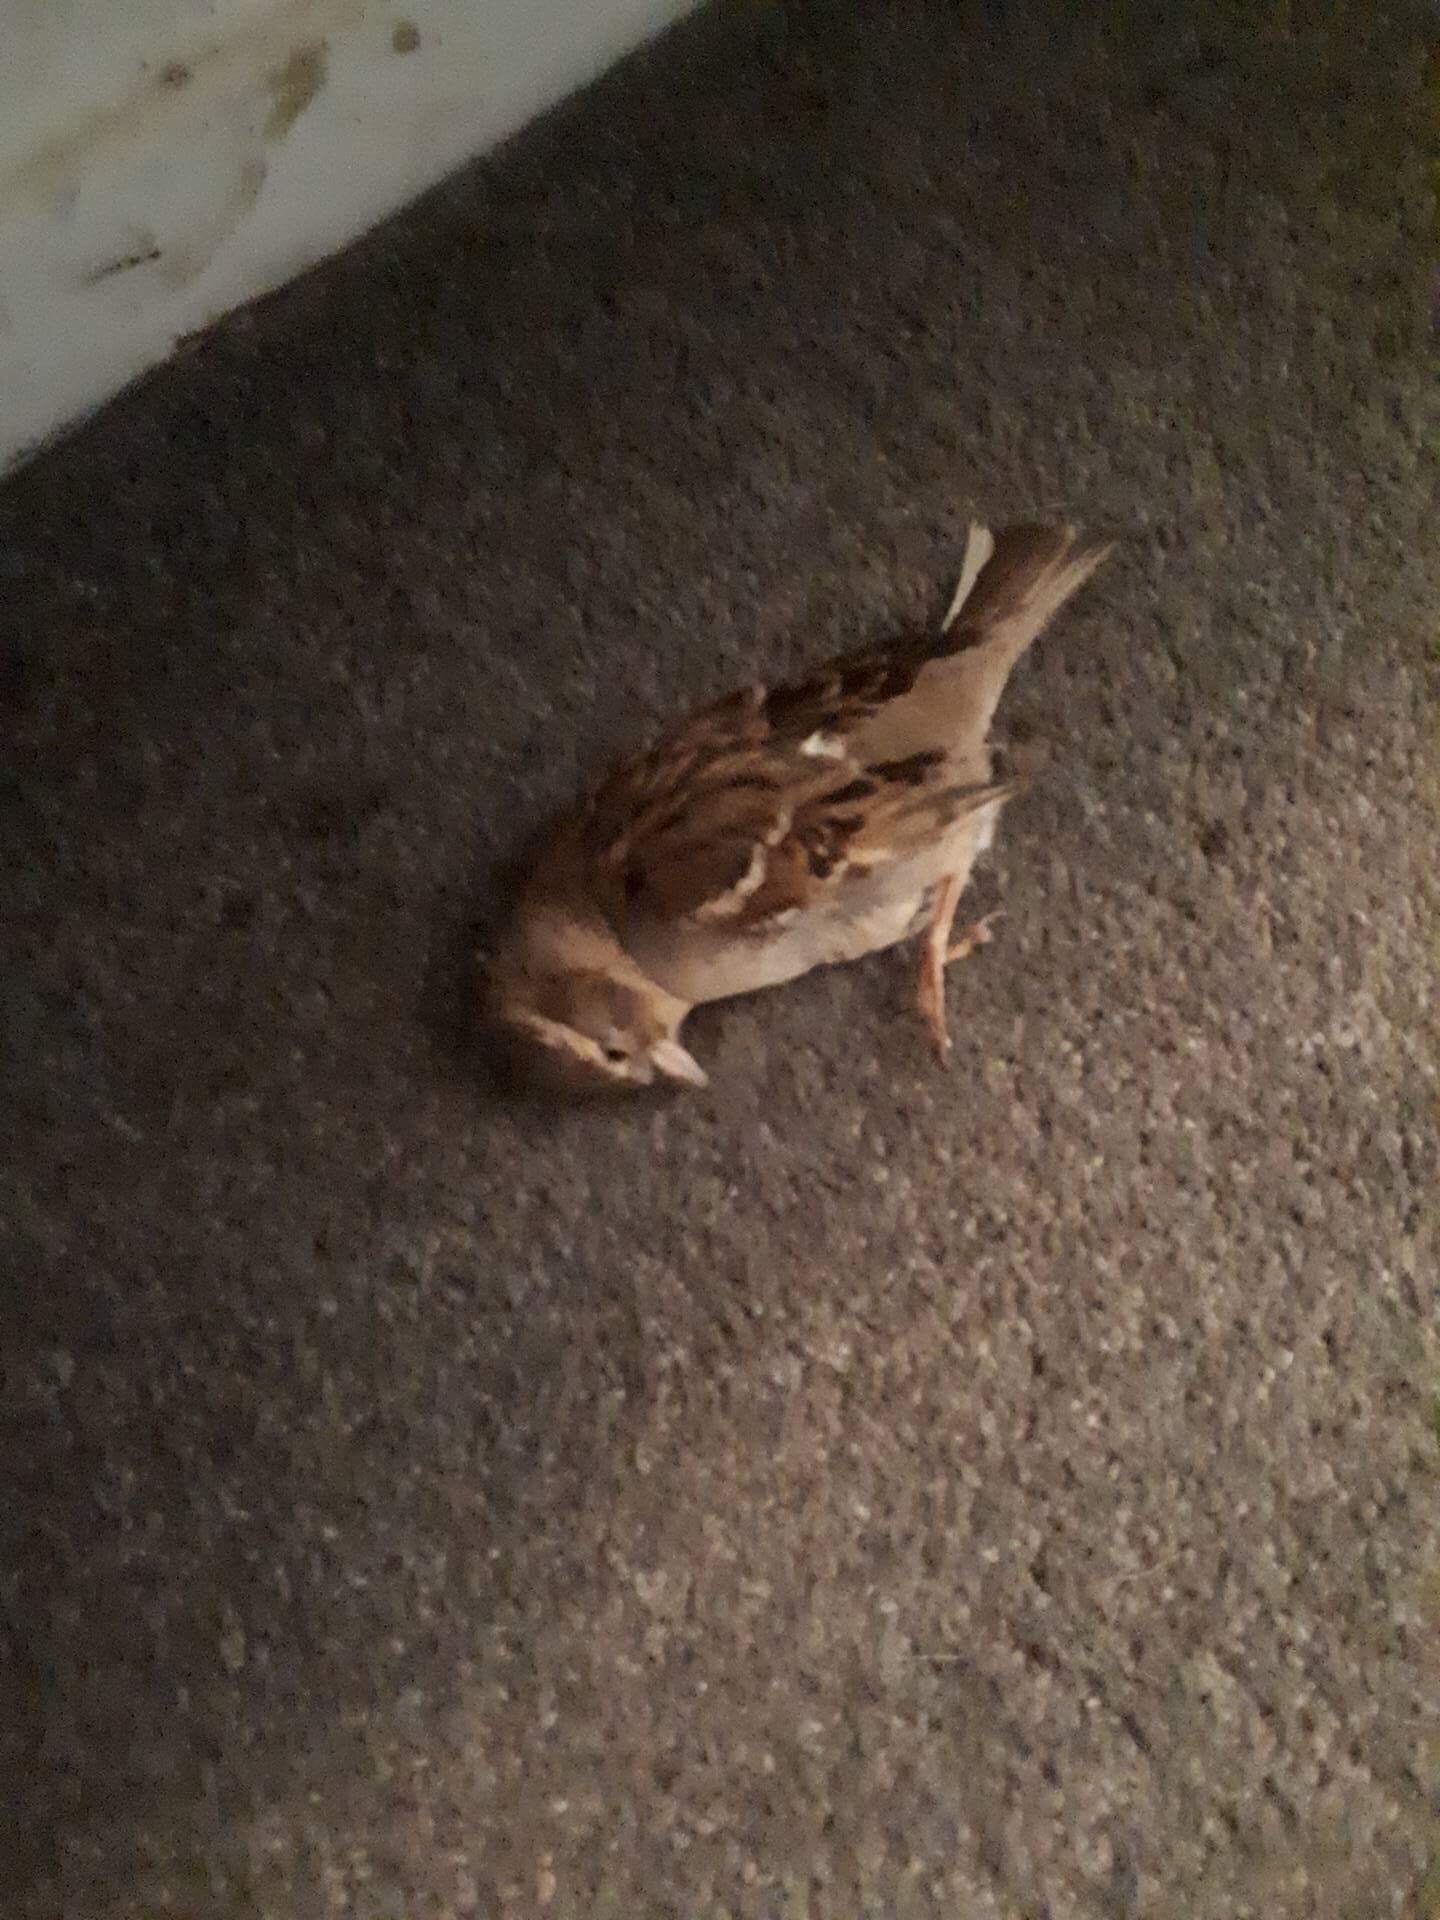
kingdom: Animalia
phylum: Chordata
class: Aves
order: Passeriformes
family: Passeridae
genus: Passer
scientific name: Passer domesticus
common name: House sparrow
